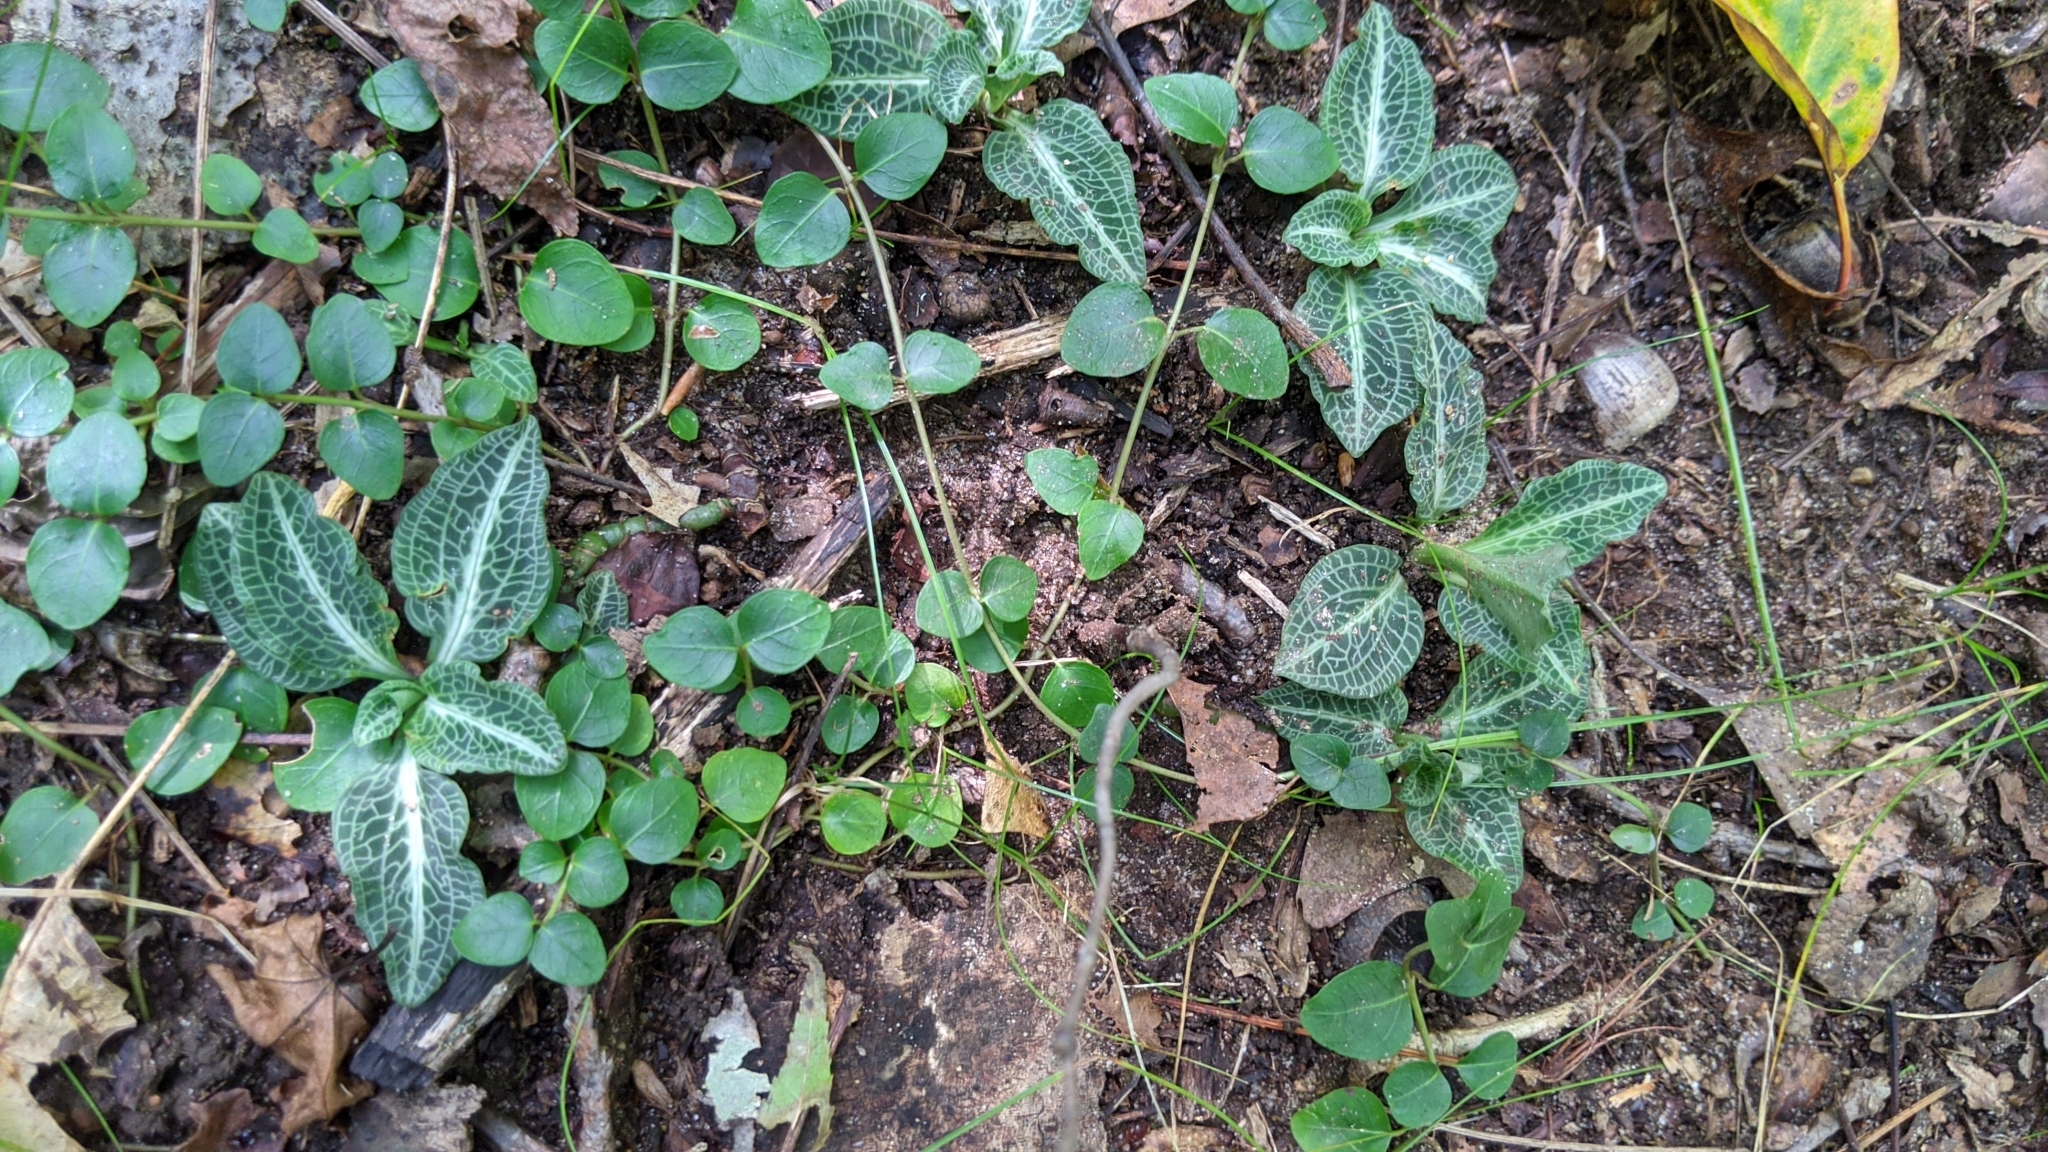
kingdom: Plantae
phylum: Tracheophyta
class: Liliopsida
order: Asparagales
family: Orchidaceae
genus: Goodyera
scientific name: Goodyera pubescens
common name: Downy rattlesnake-plantain
